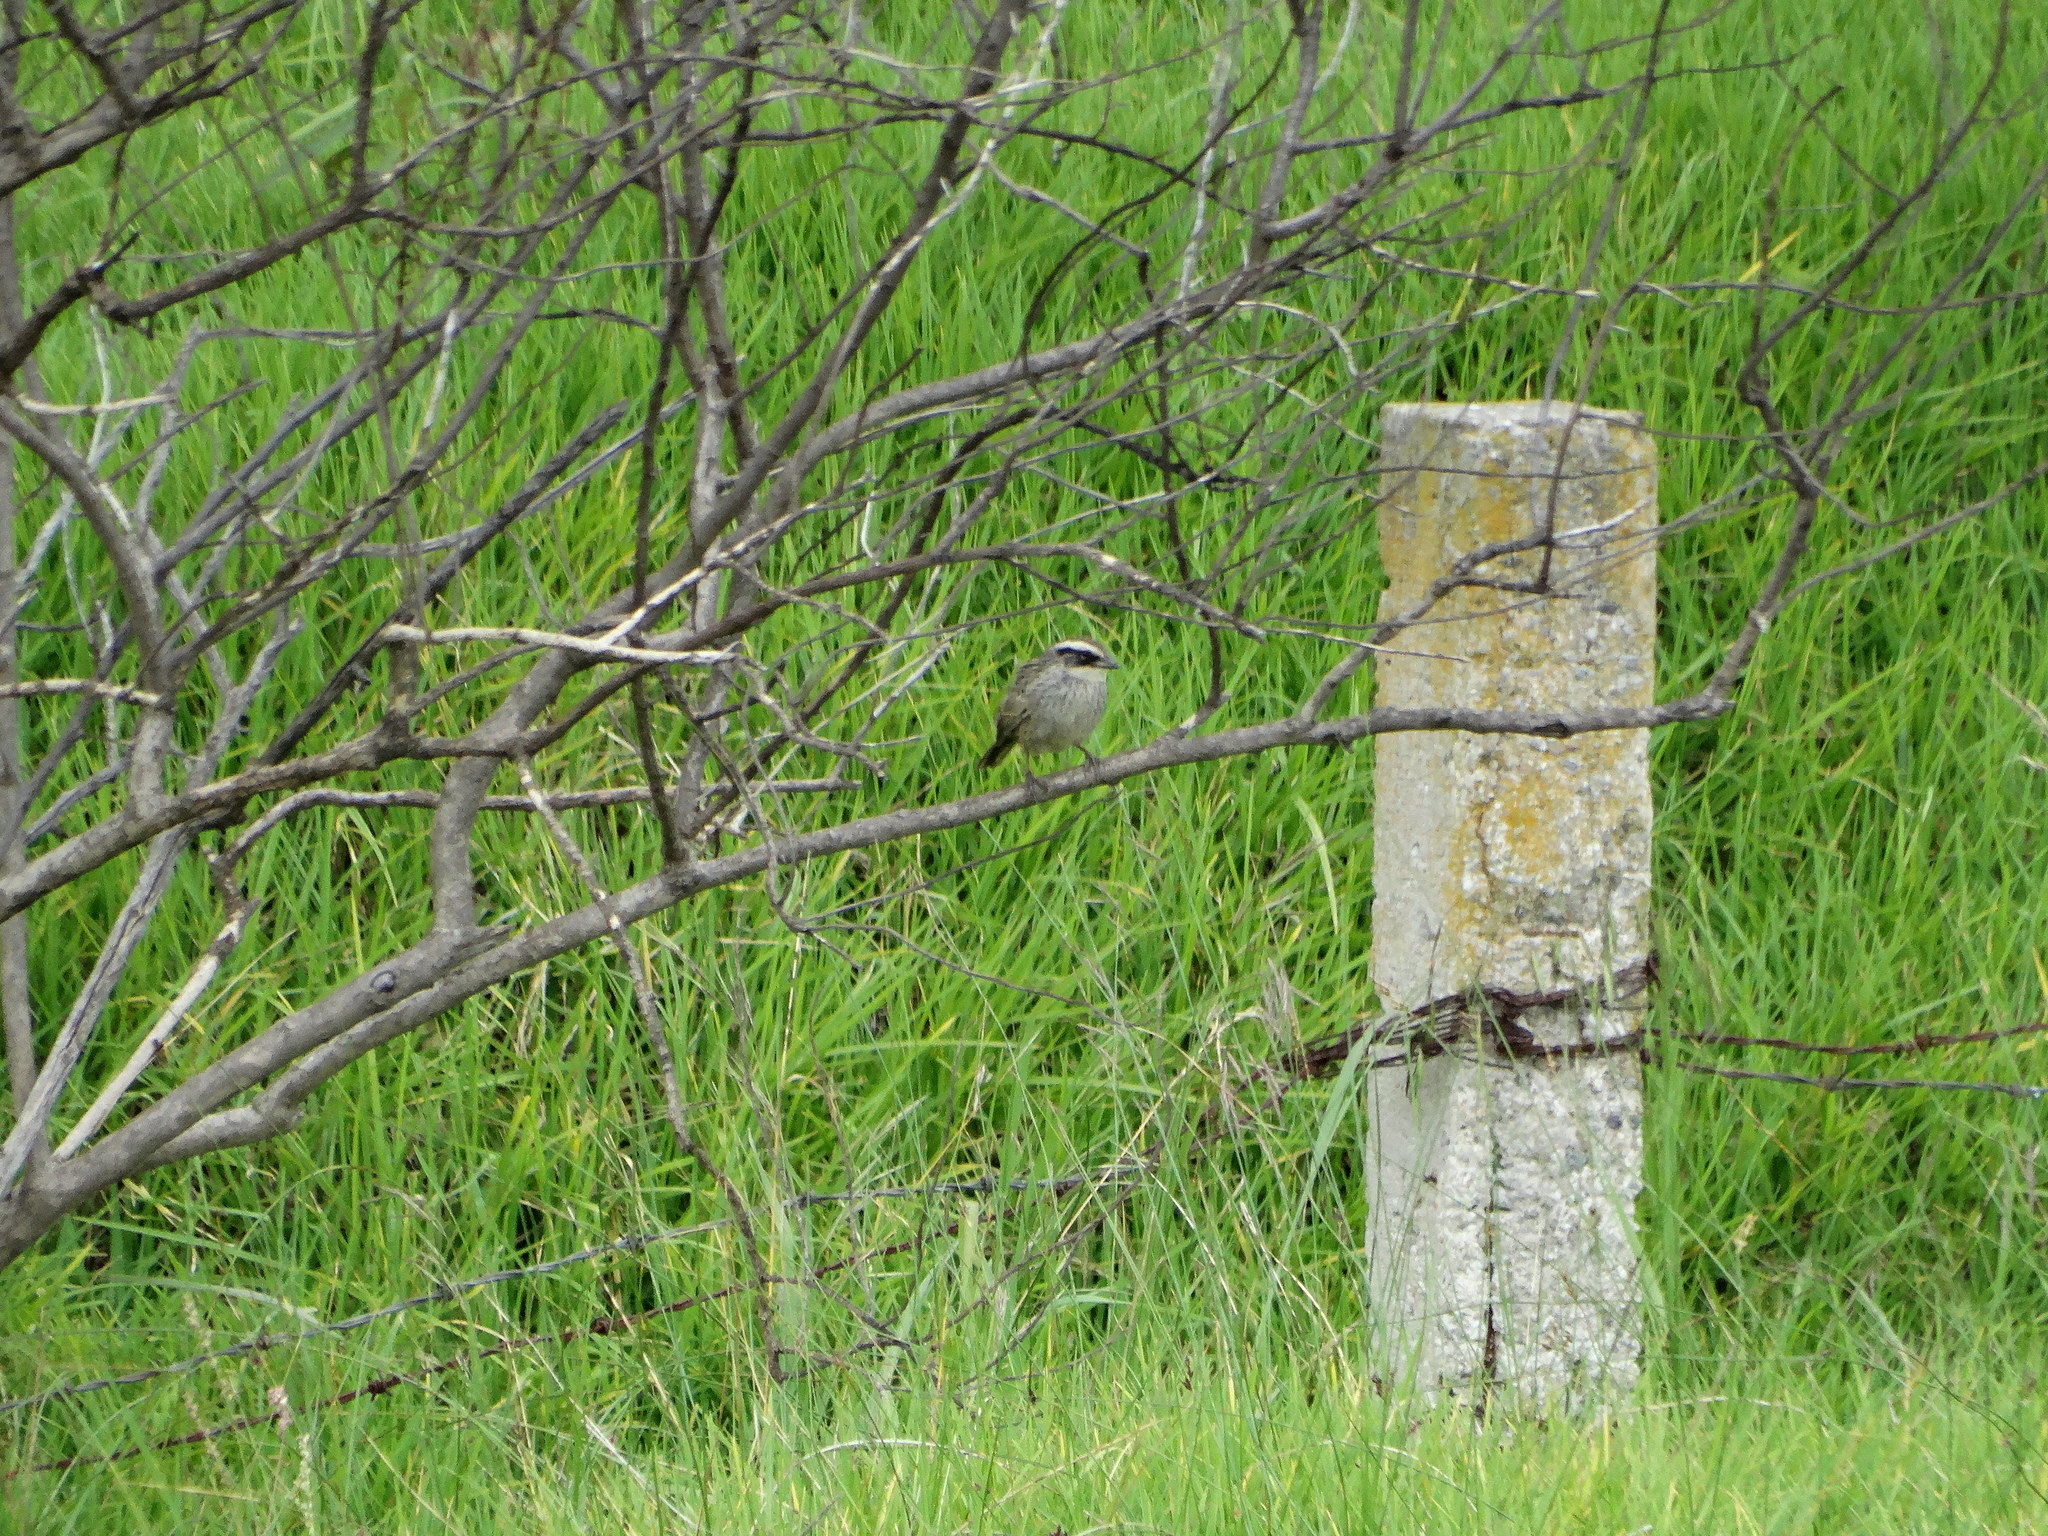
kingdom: Animalia
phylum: Chordata
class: Aves
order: Passeriformes
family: Passerellidae
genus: Oriturus
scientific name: Oriturus superciliosus
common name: Striped sparrow
